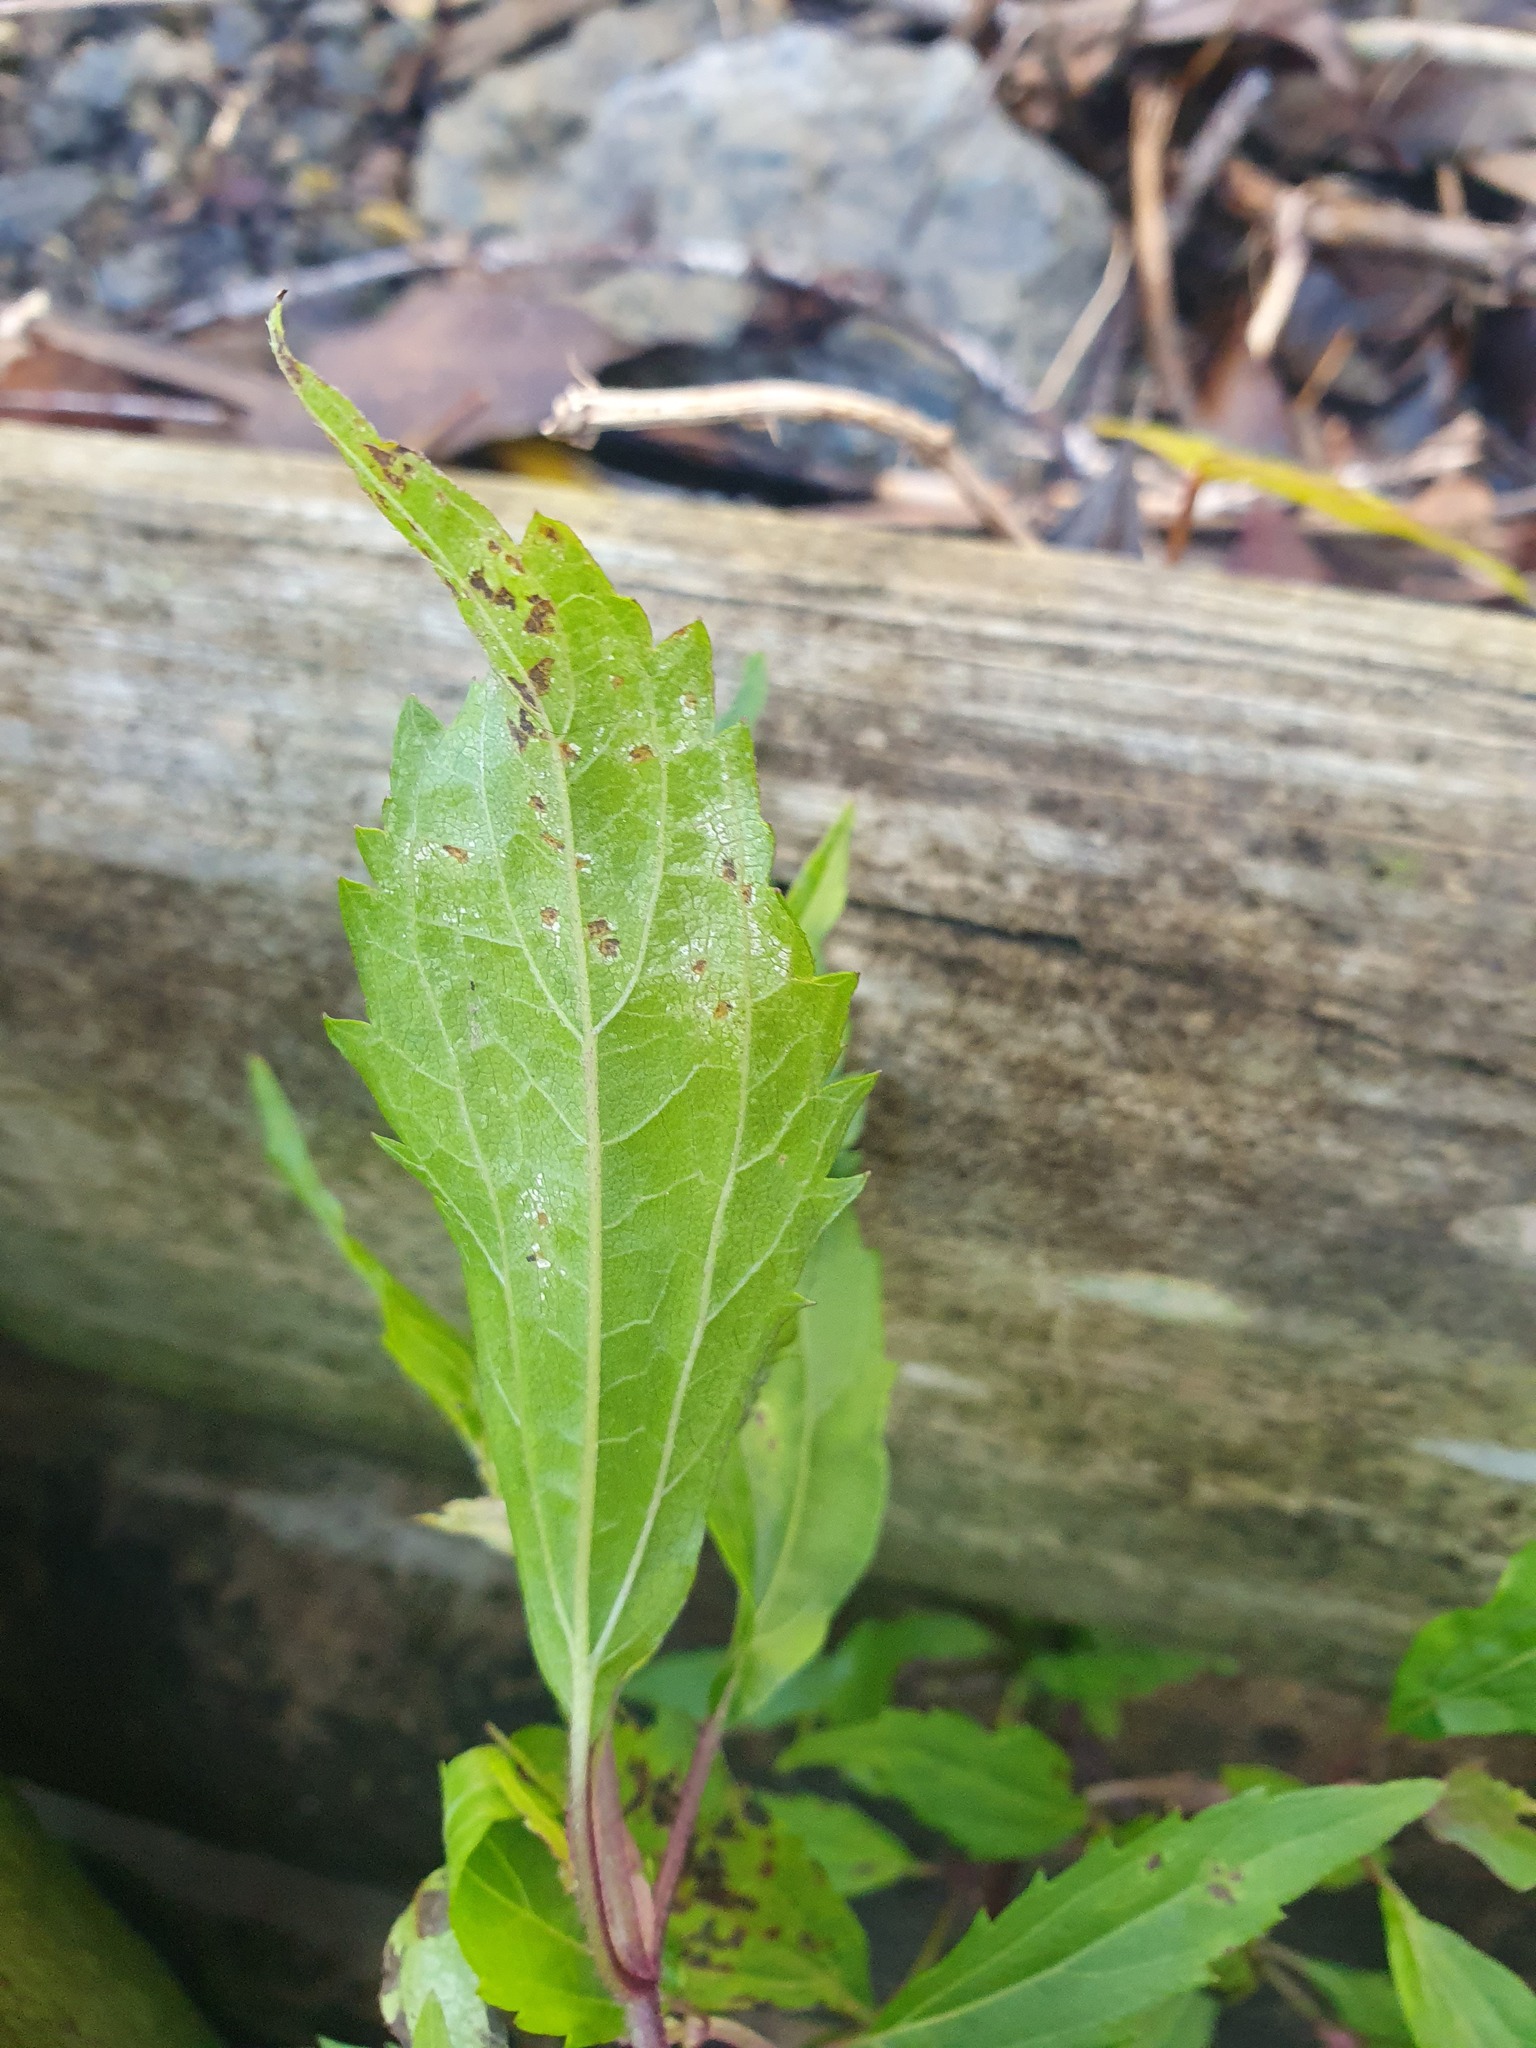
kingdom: Plantae
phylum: Tracheophyta
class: Magnoliopsida
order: Asterales
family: Asteraceae
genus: Ageratina
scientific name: Ageratina riparia
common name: Creeping croftonweed
